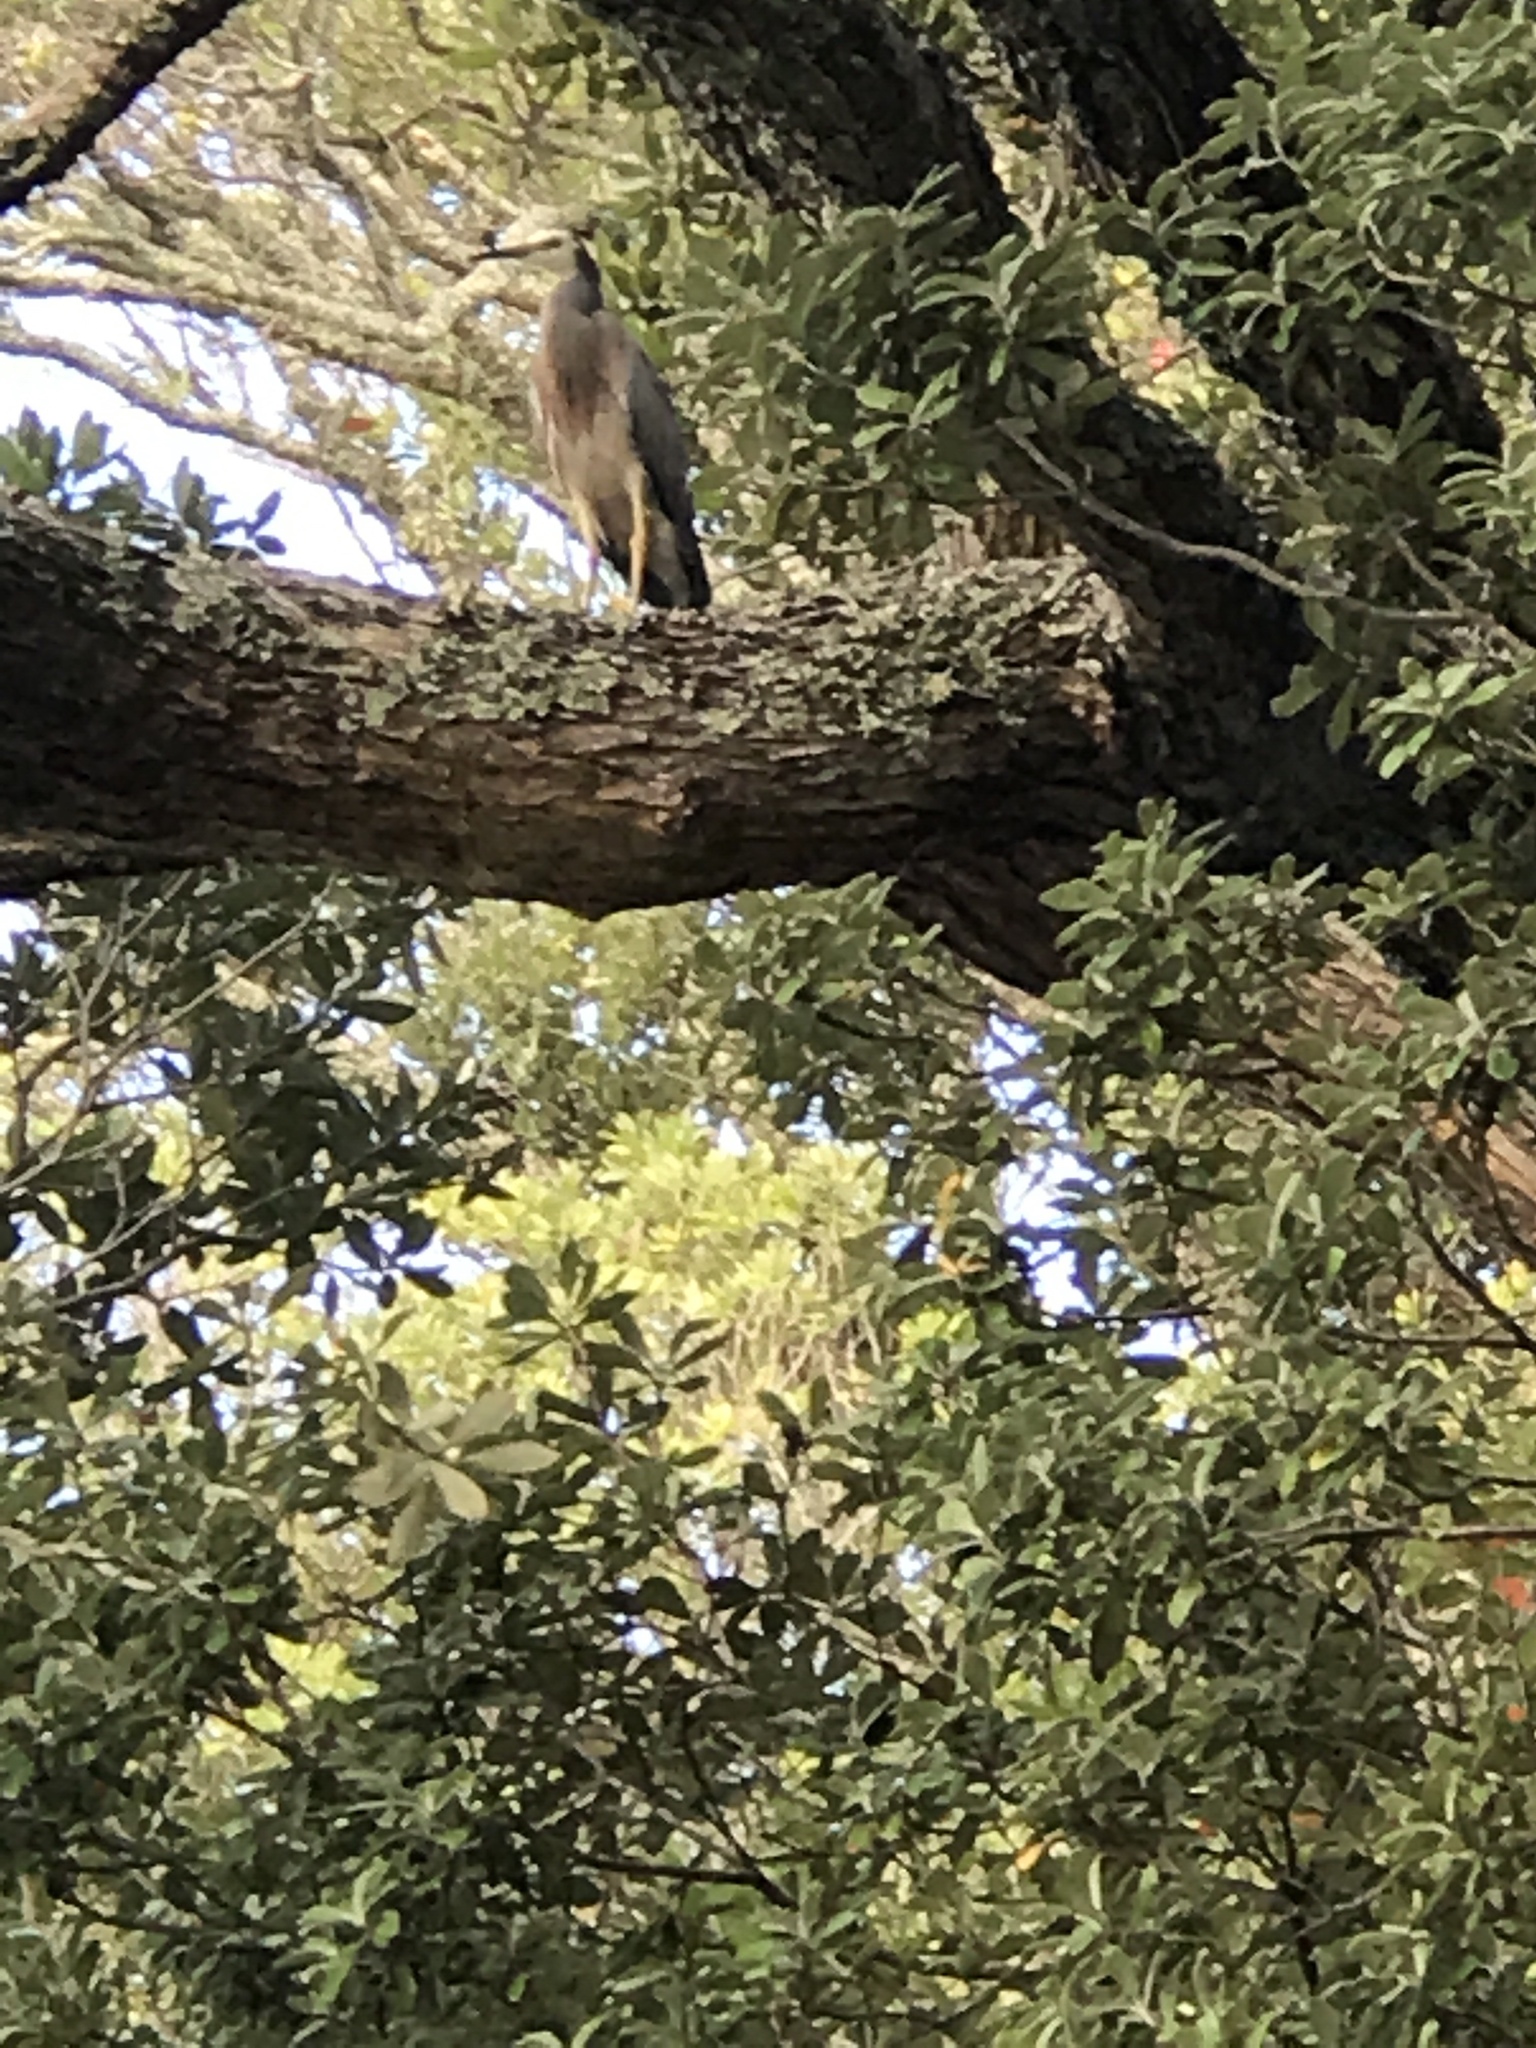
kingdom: Animalia
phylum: Chordata
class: Aves
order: Pelecaniformes
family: Ardeidae
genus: Egretta
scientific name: Egretta novaehollandiae
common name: White-faced heron
